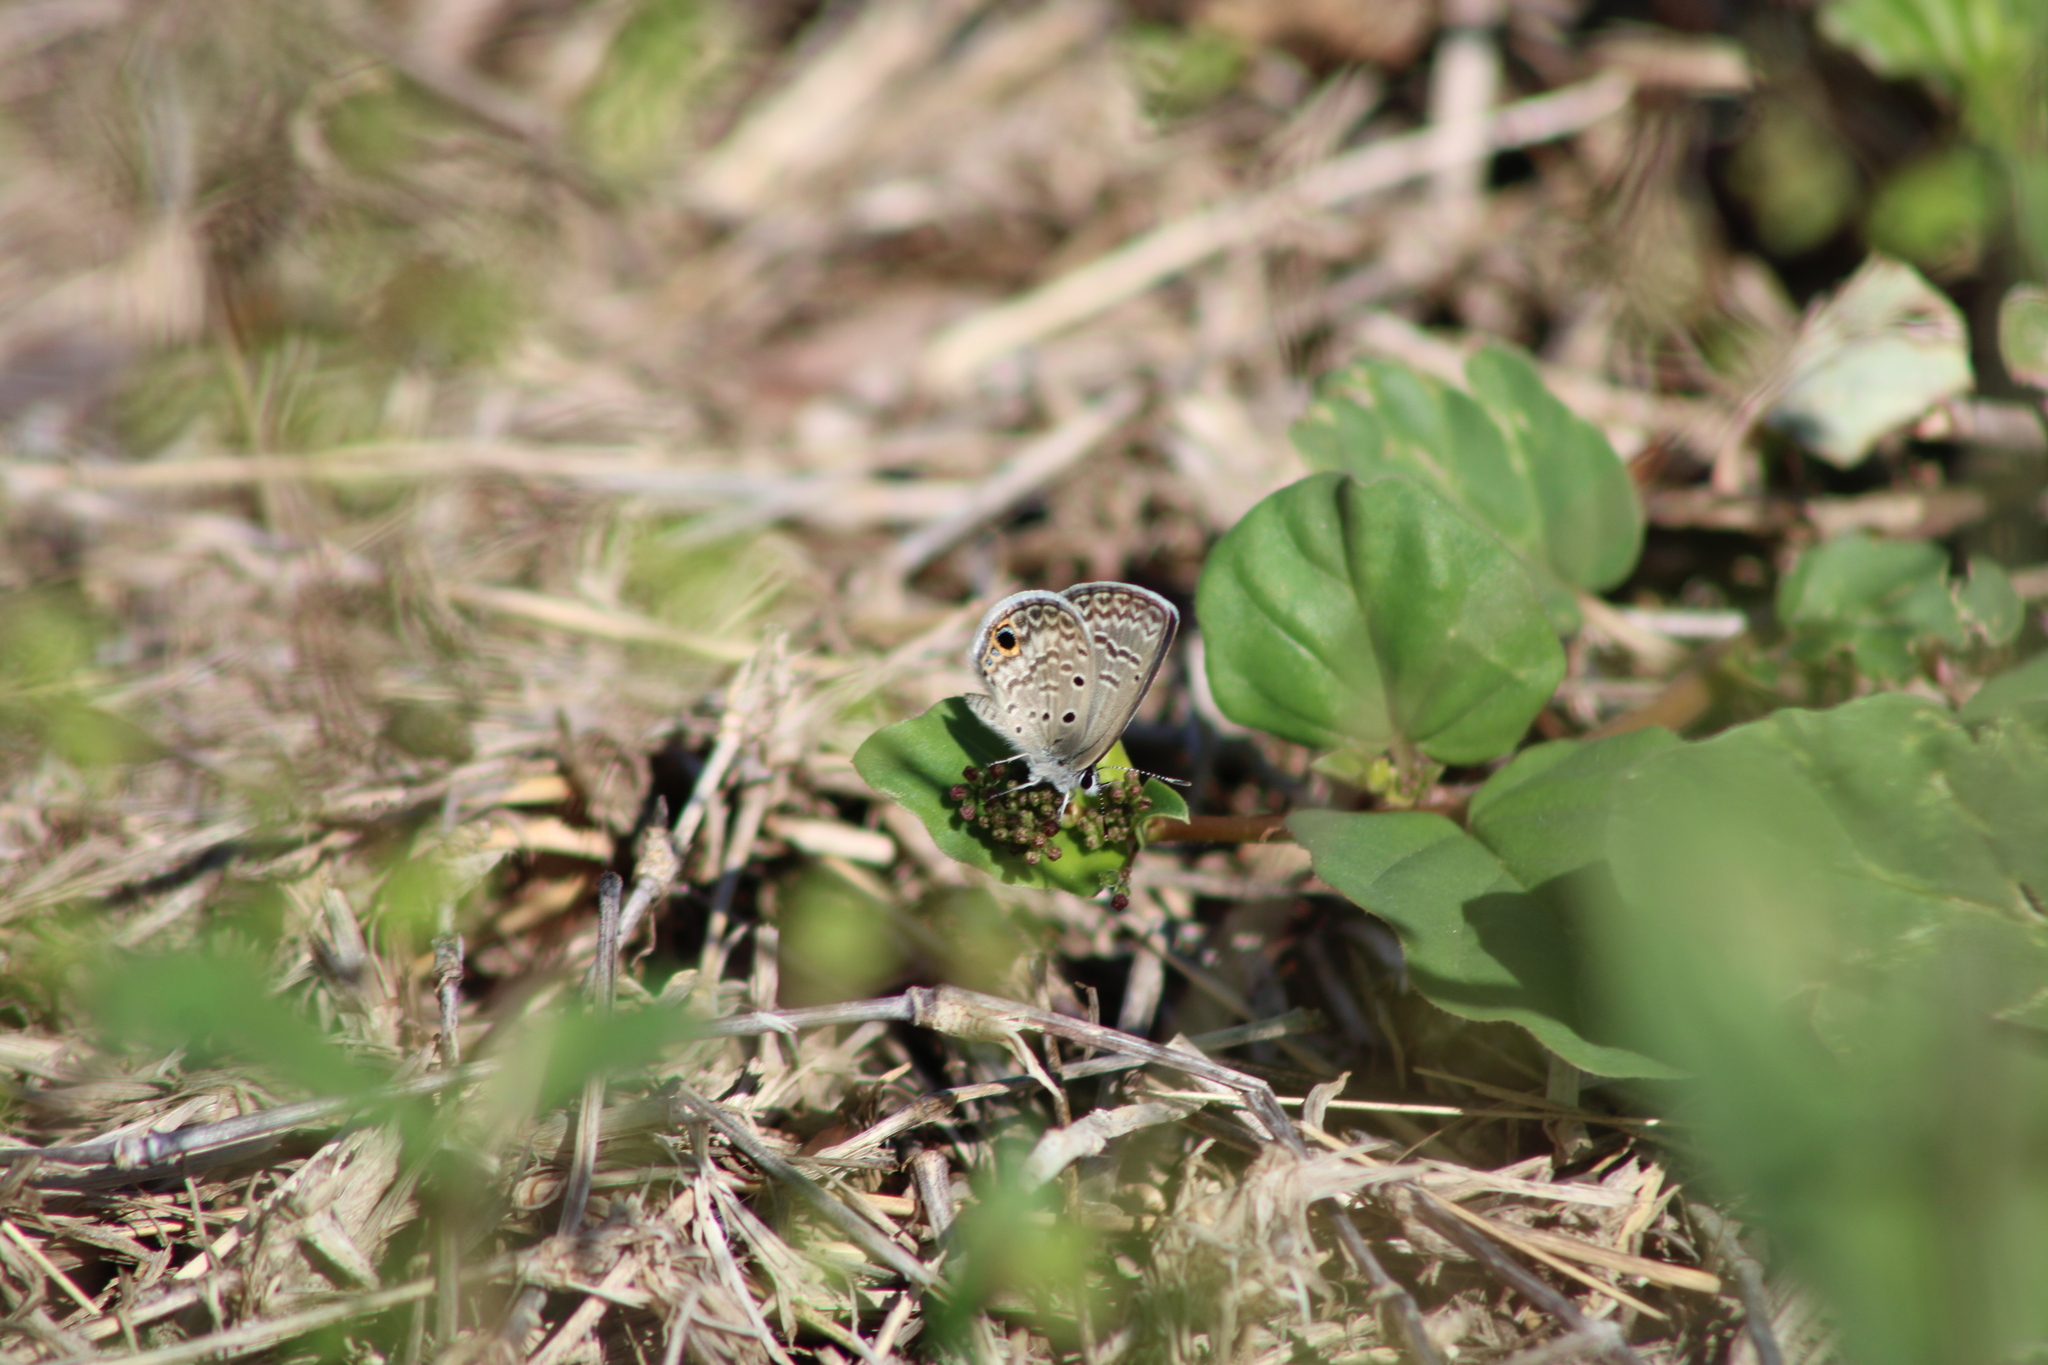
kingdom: Animalia
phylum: Arthropoda
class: Insecta
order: Lepidoptera
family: Lycaenidae
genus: Hemiargus
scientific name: Hemiargus ceraunus
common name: Ceraunus blue
